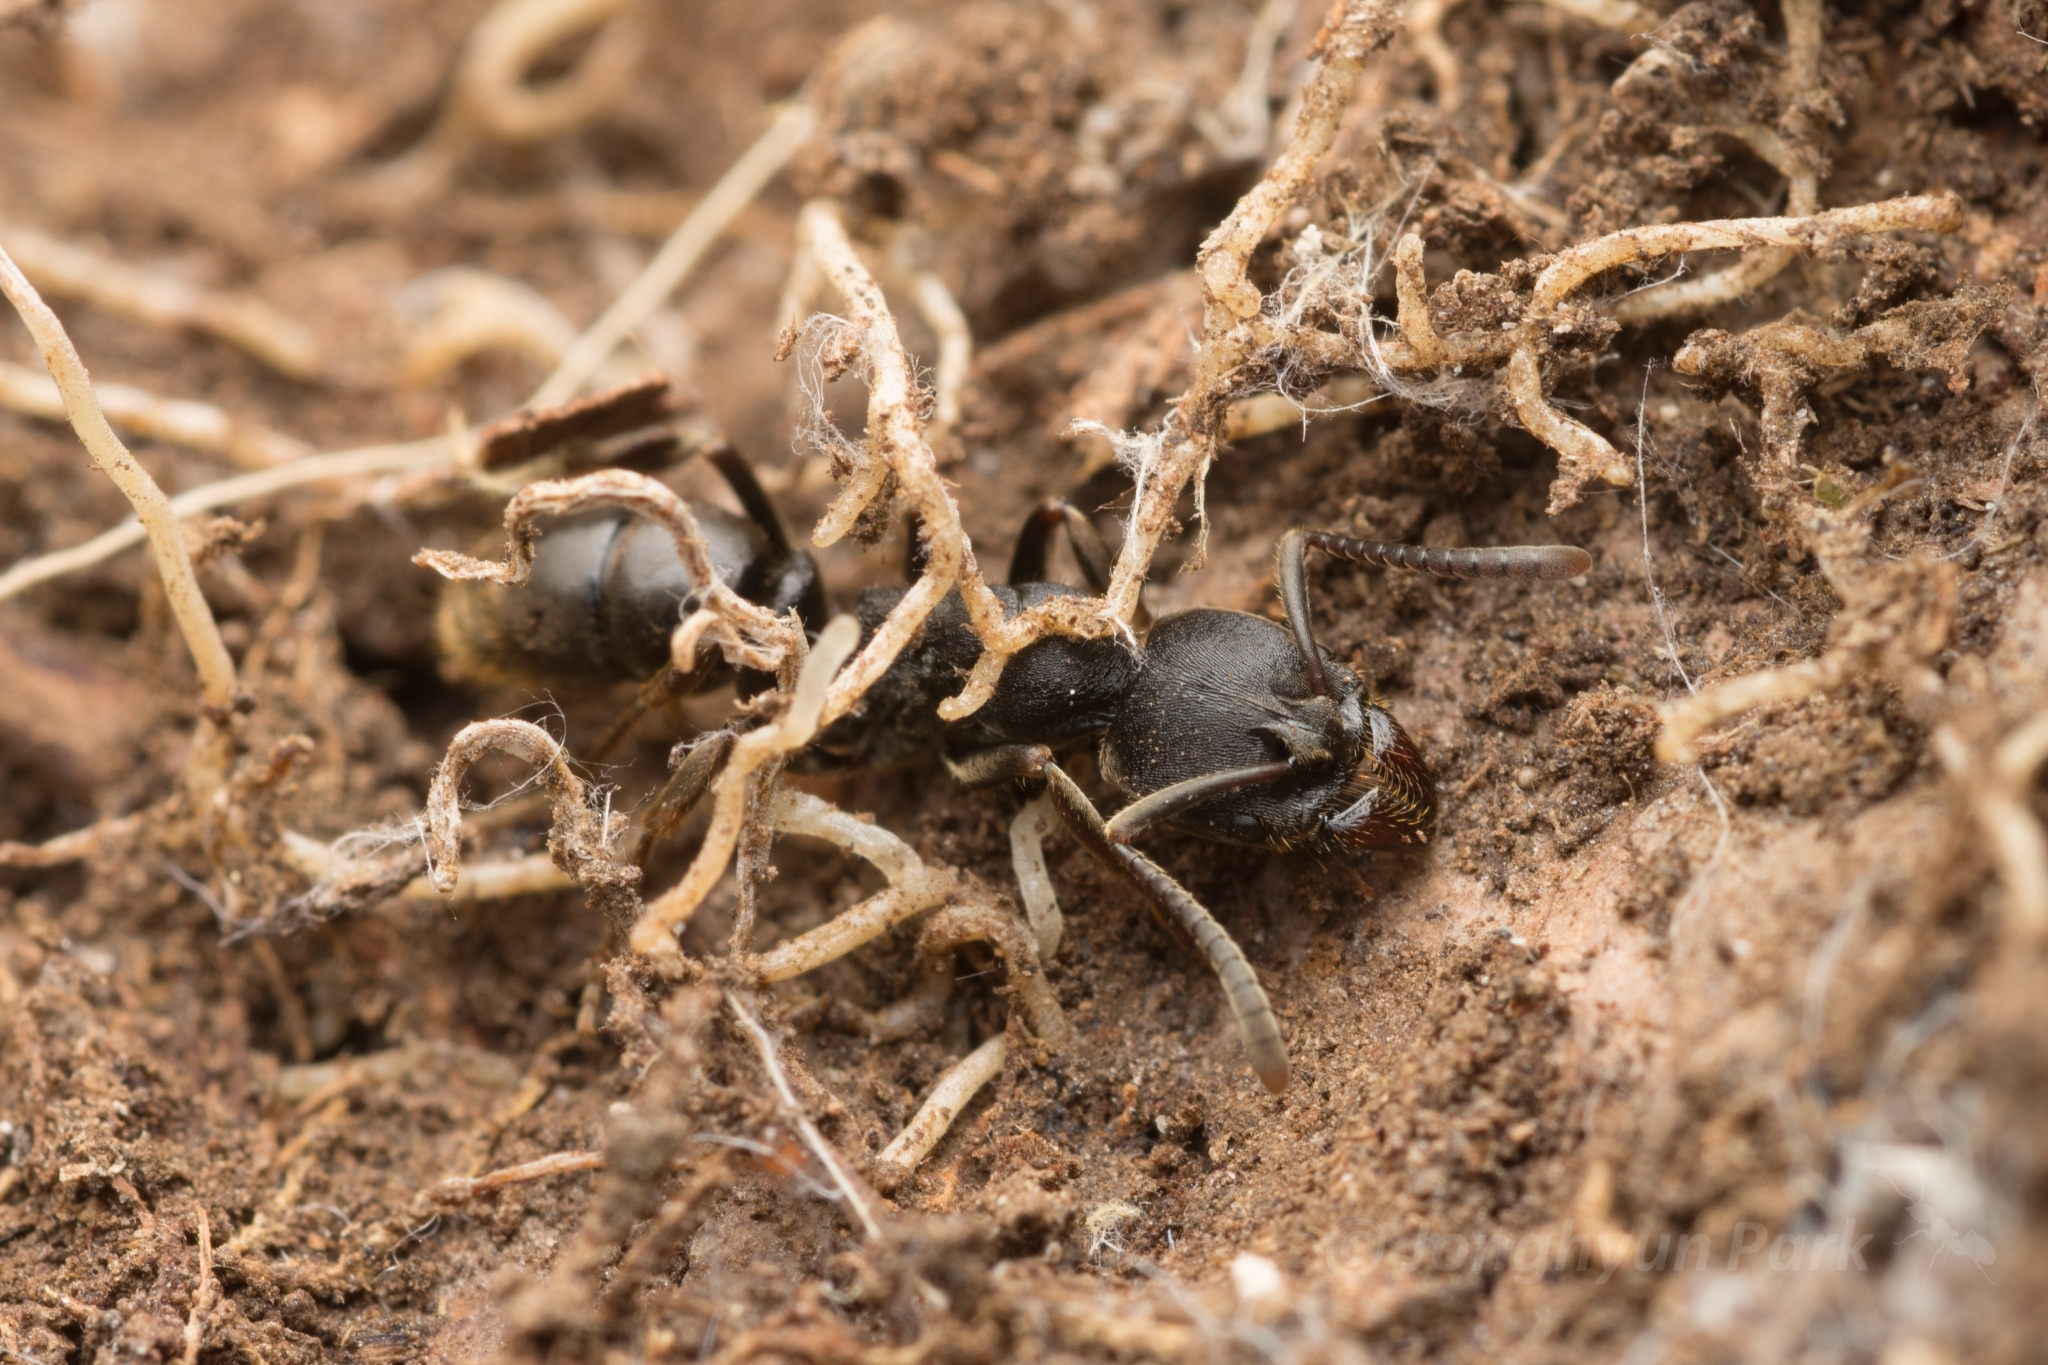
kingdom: Animalia
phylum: Arthropoda
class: Insecta
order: Hymenoptera
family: Formicidae
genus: Ectomomyrmex
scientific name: Ectomomyrmex javanus
